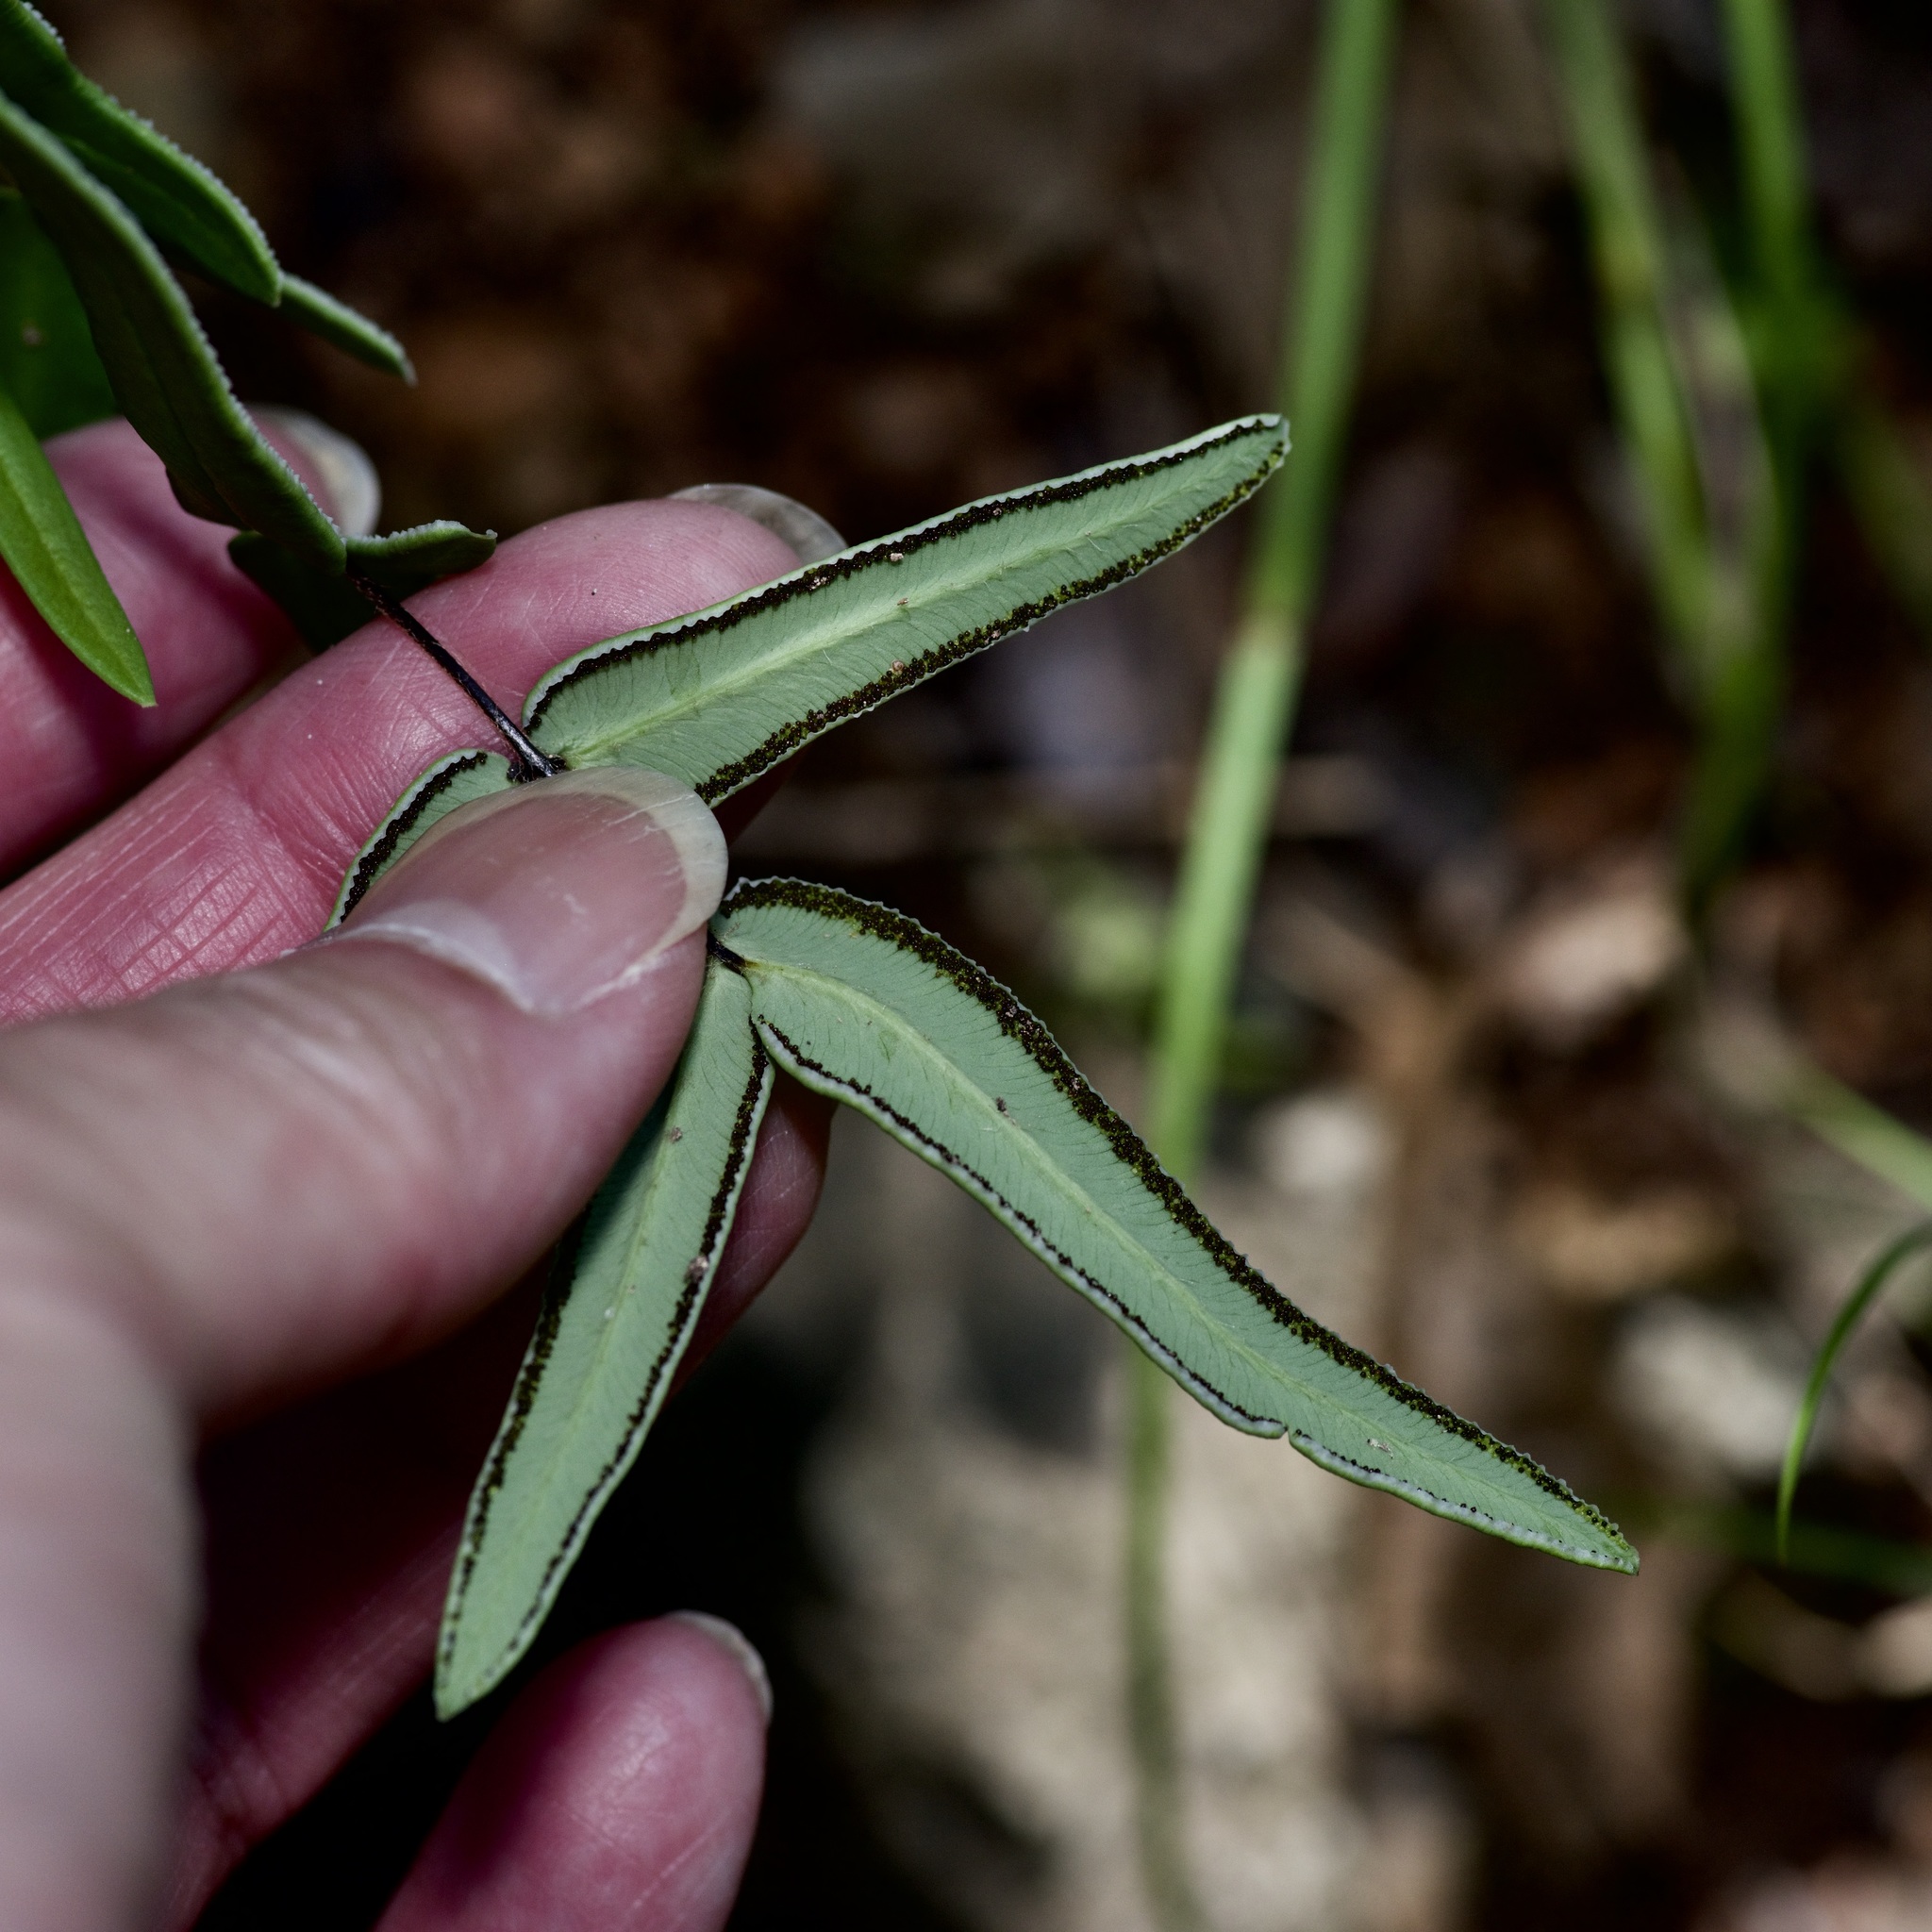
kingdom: Plantae
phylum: Tracheophyta
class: Polypodiopsida
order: Polypodiales
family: Pteridaceae
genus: Pellaea
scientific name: Pellaea atropurpurea
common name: Hairy cliffbrake
